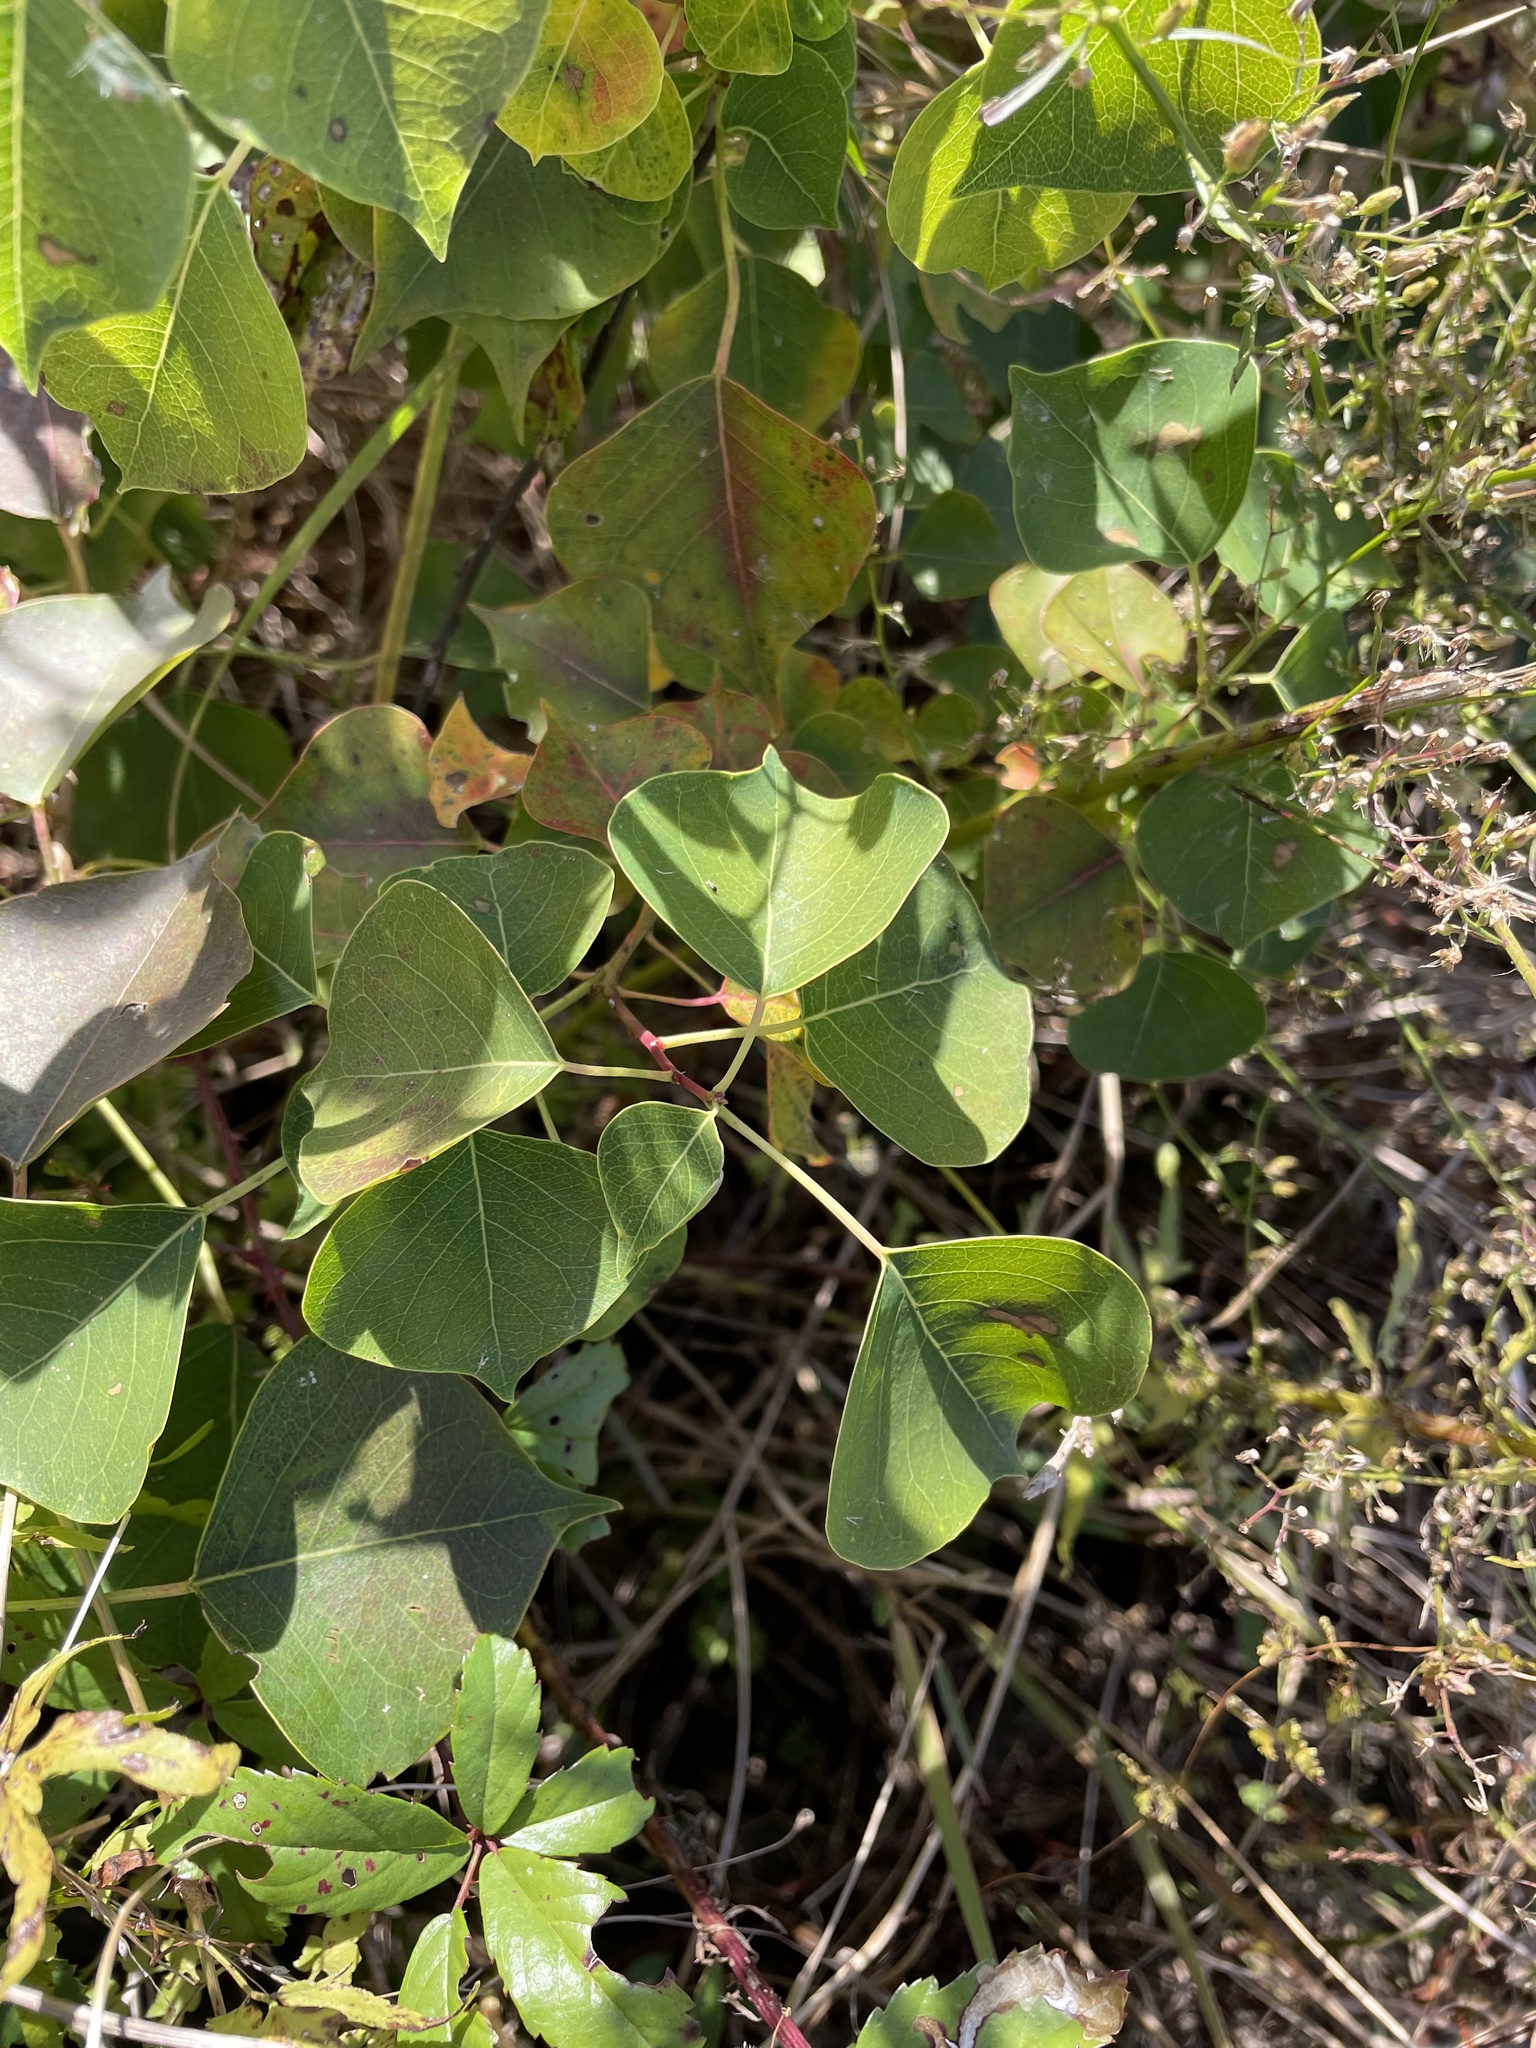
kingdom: Plantae
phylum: Tracheophyta
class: Magnoliopsida
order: Malpighiales
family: Euphorbiaceae
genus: Triadica
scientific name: Triadica sebifera
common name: Chinese tallow
